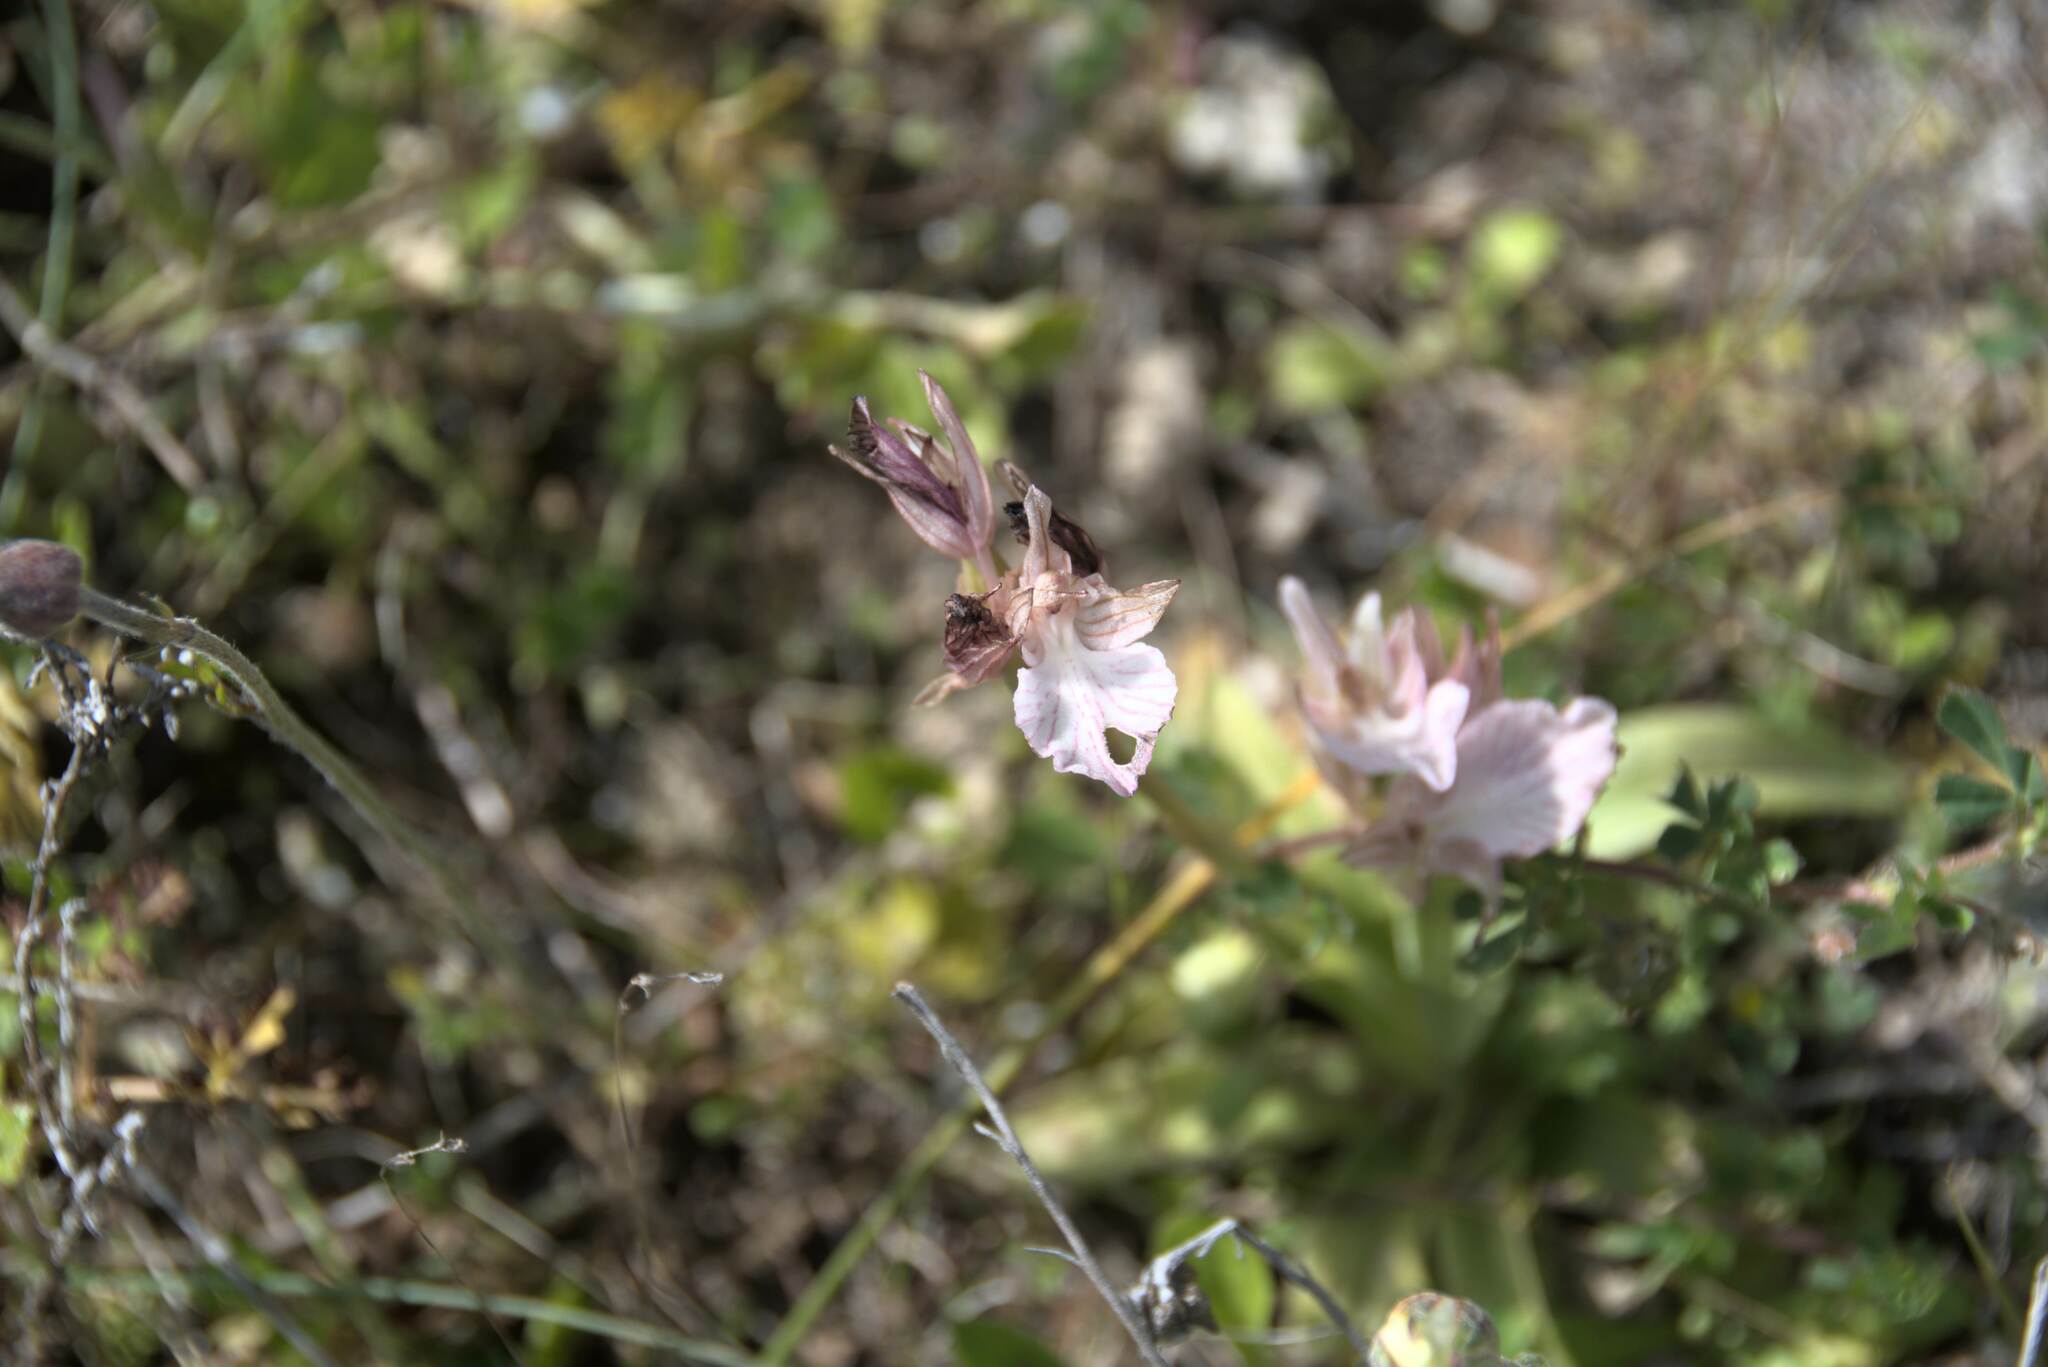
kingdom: Plantae
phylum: Tracheophyta
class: Liliopsida
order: Asparagales
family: Orchidaceae
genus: Anacamptis
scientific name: Anacamptis papilionacea
